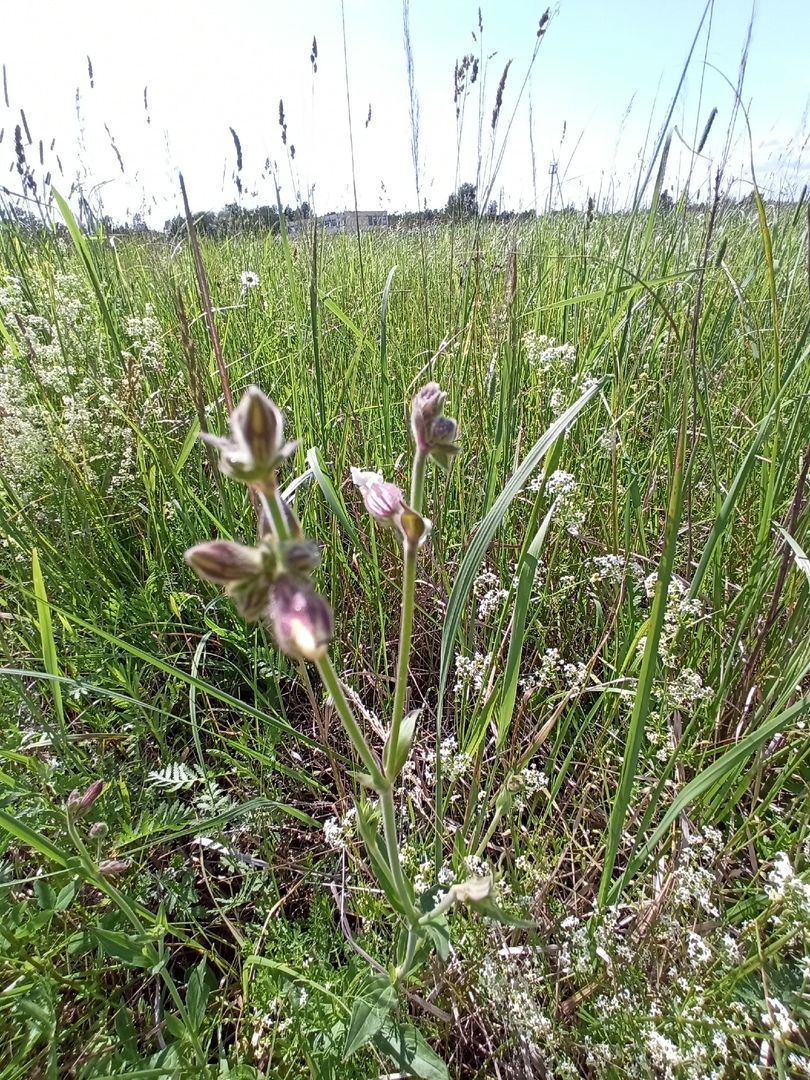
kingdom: Plantae
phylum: Tracheophyta
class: Magnoliopsida
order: Caryophyllales
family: Caryophyllaceae
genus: Silene
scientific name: Silene latifolia
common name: White campion
